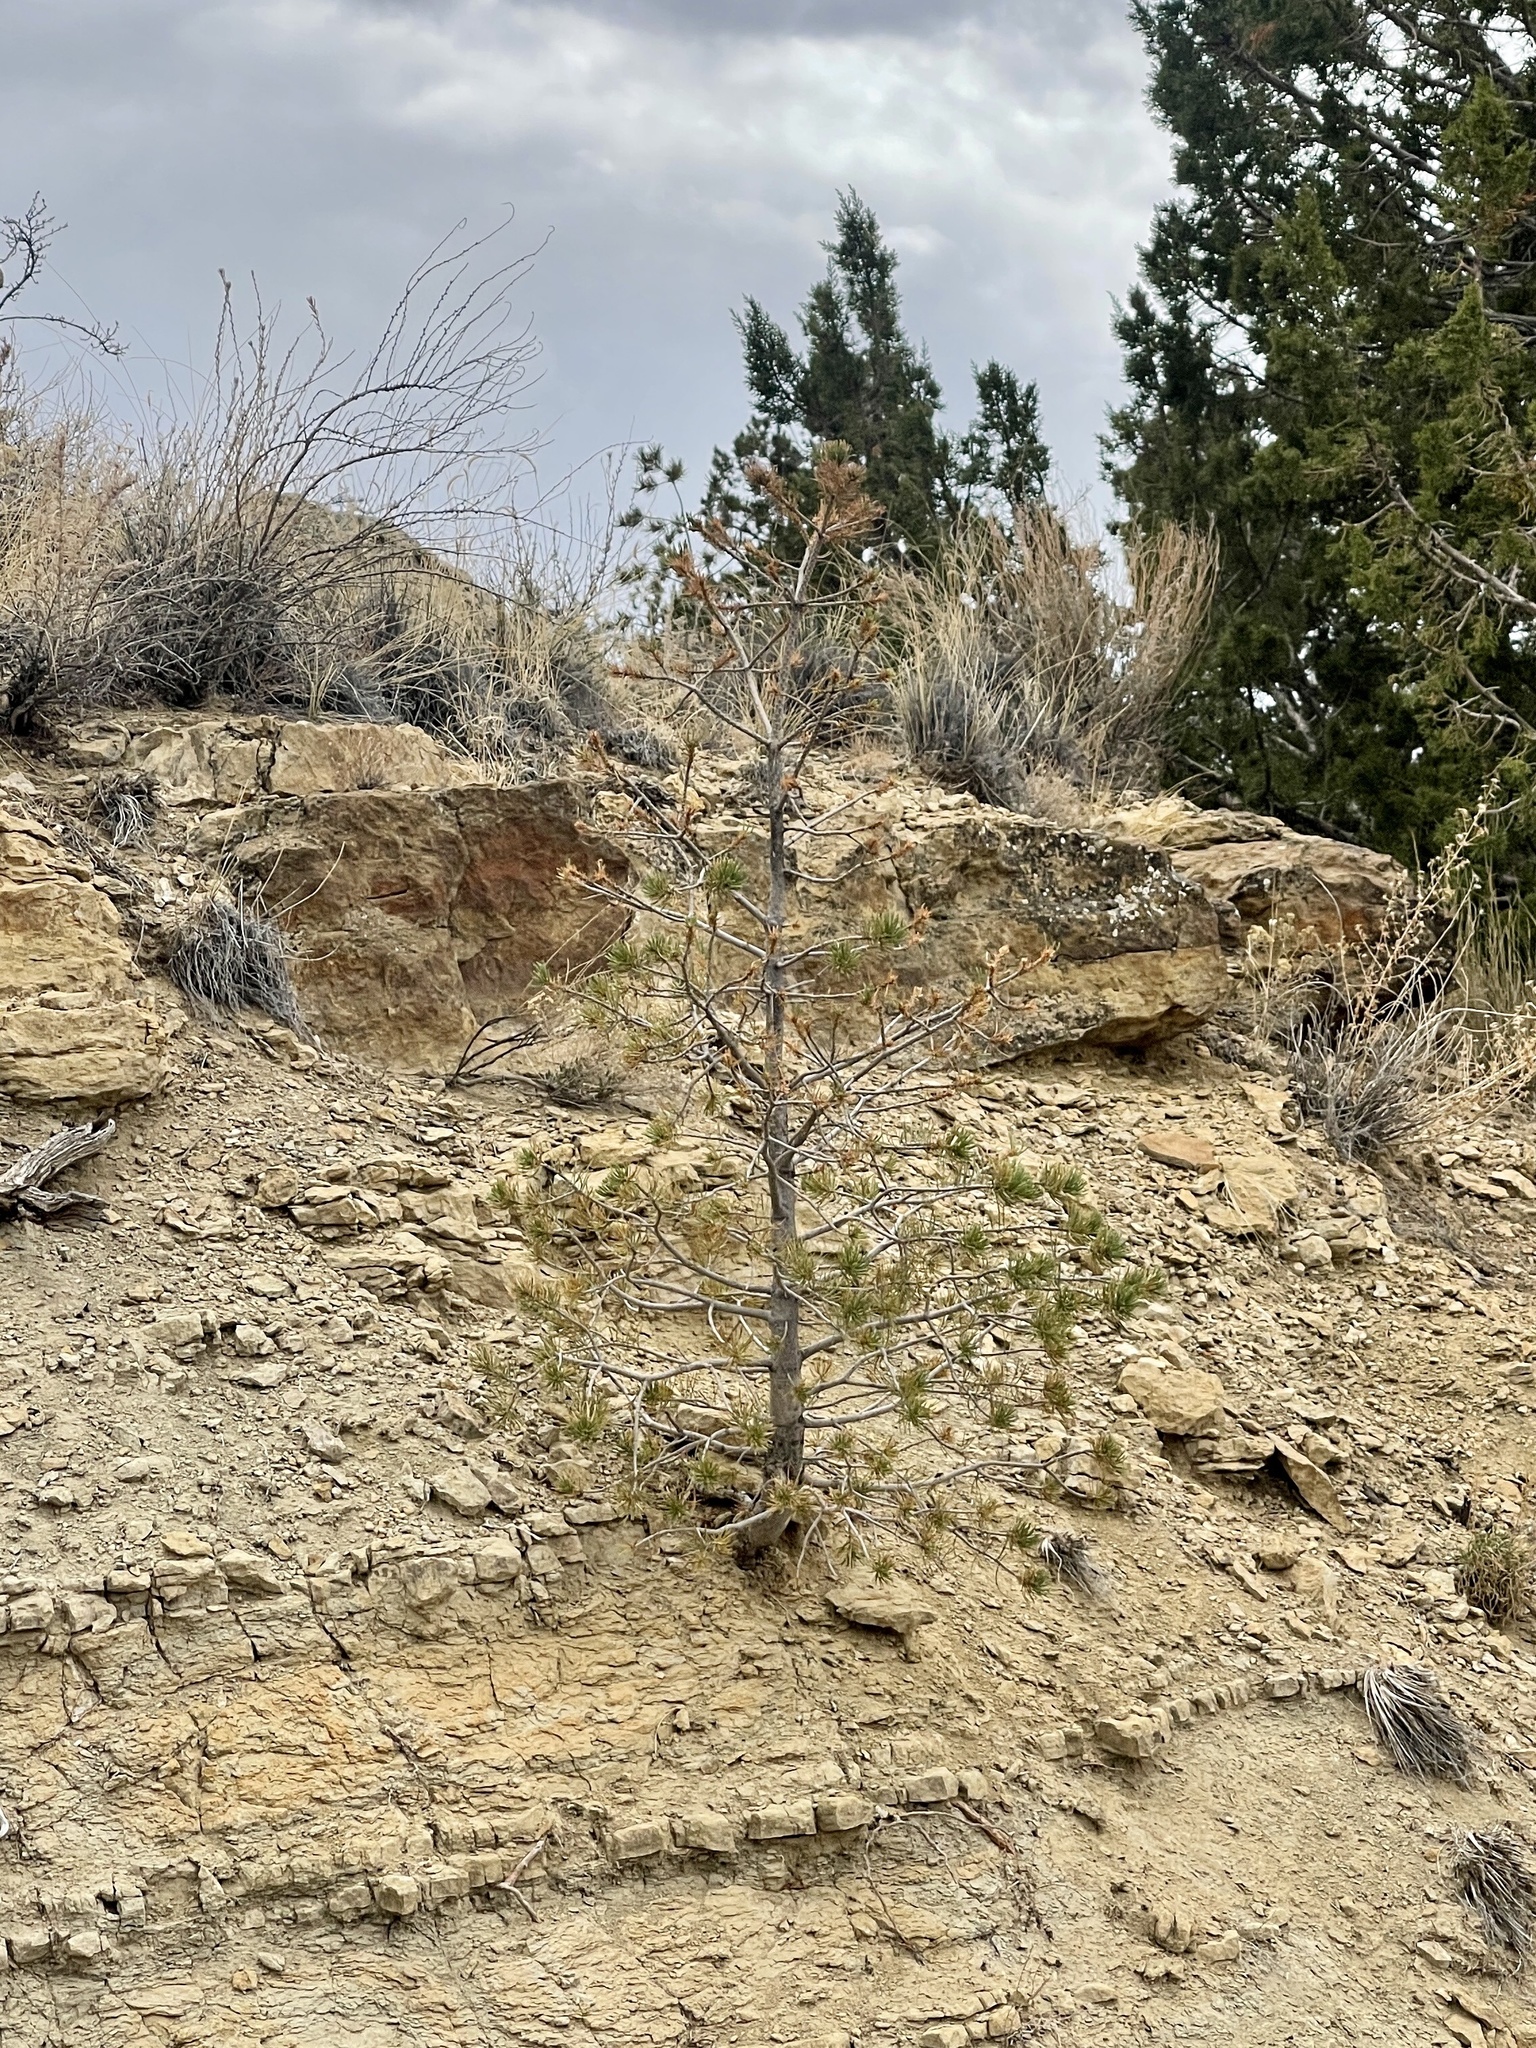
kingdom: Plantae
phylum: Tracheophyta
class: Pinopsida
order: Pinales
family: Pinaceae
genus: Pinus
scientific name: Pinus edulis
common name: Colorado pinyon
